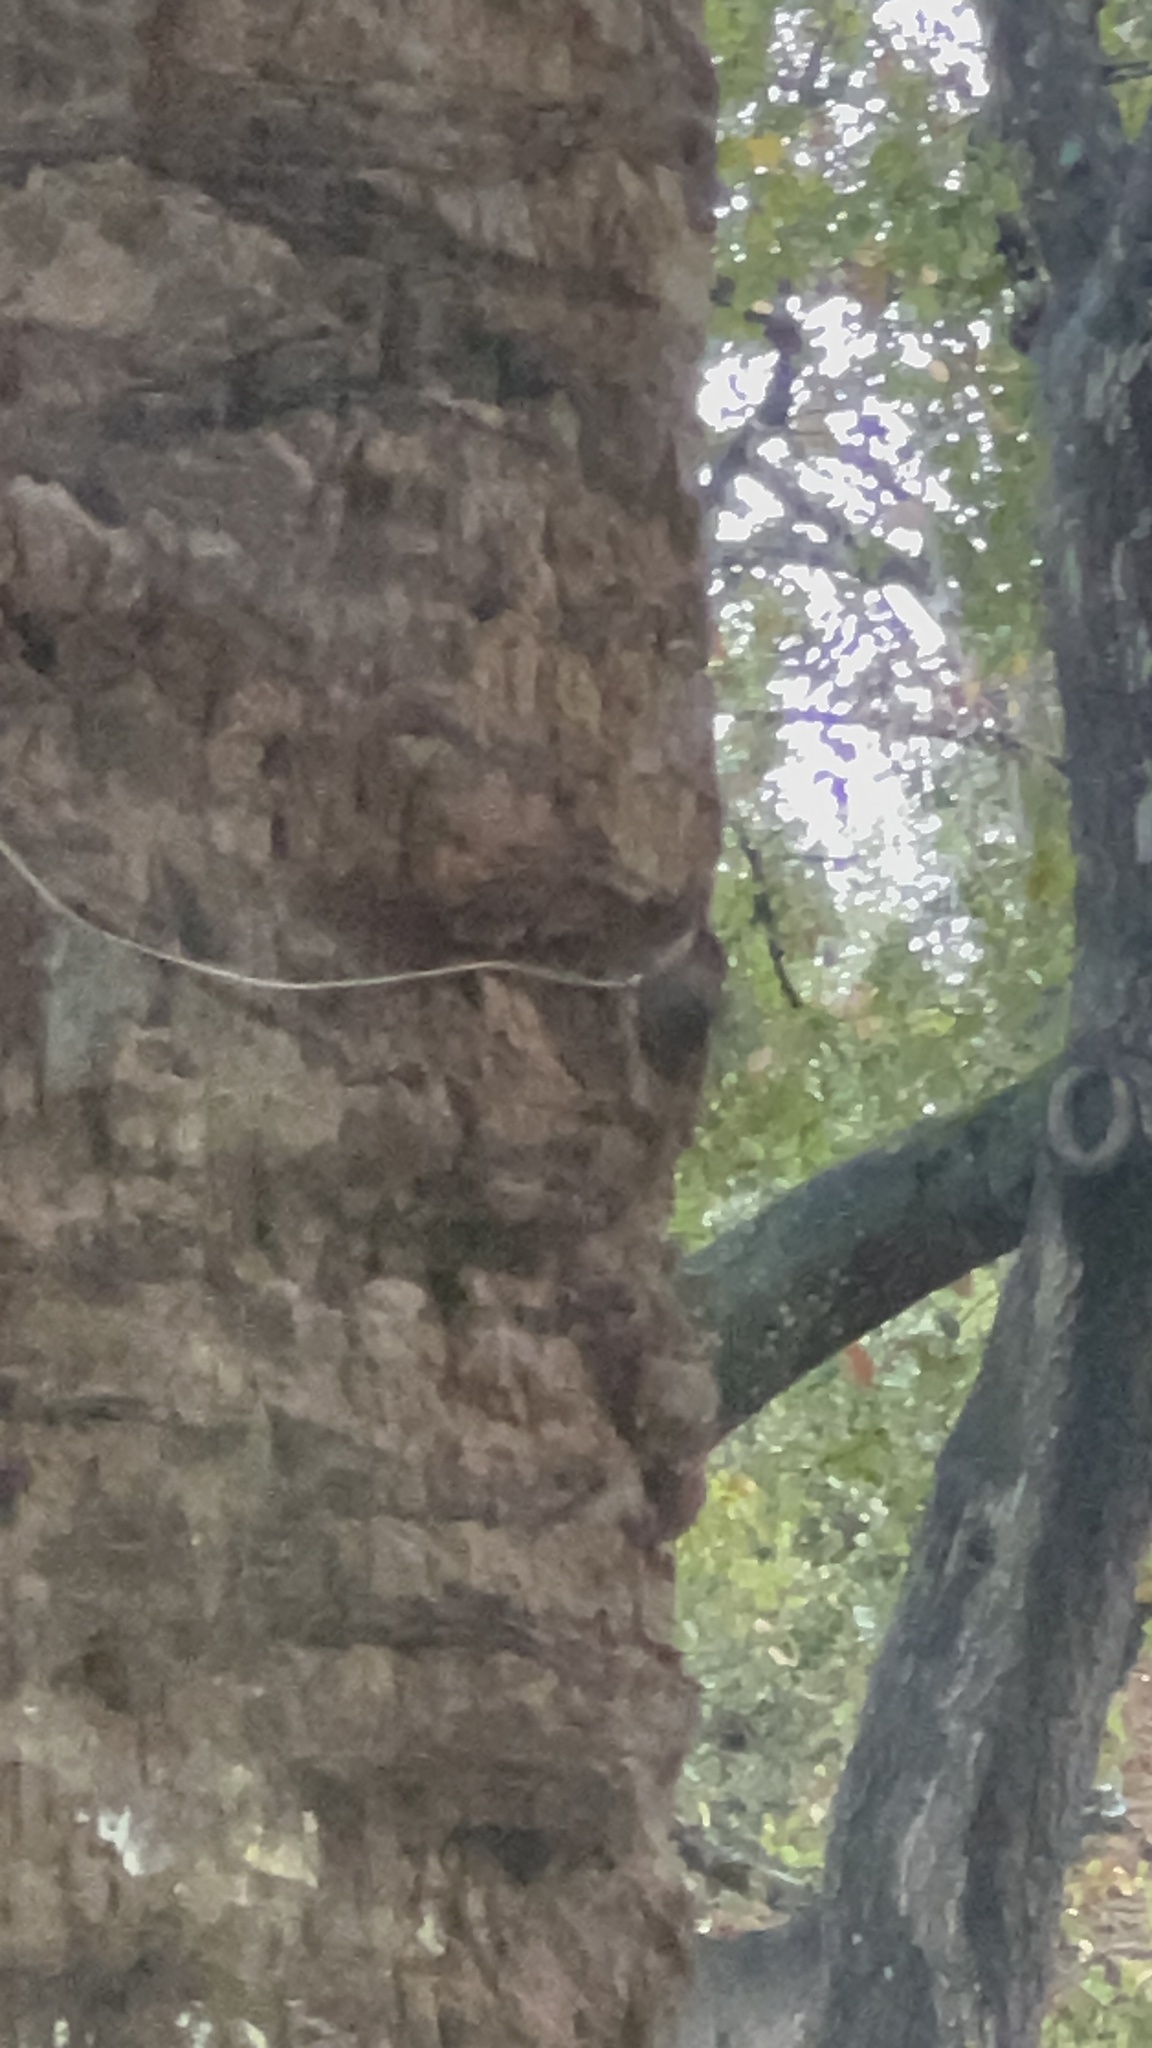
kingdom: Animalia
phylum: Chordata
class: Aves
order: Passeriformes
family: Certhiidae
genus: Certhia
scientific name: Certhia americana
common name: Brown creeper
